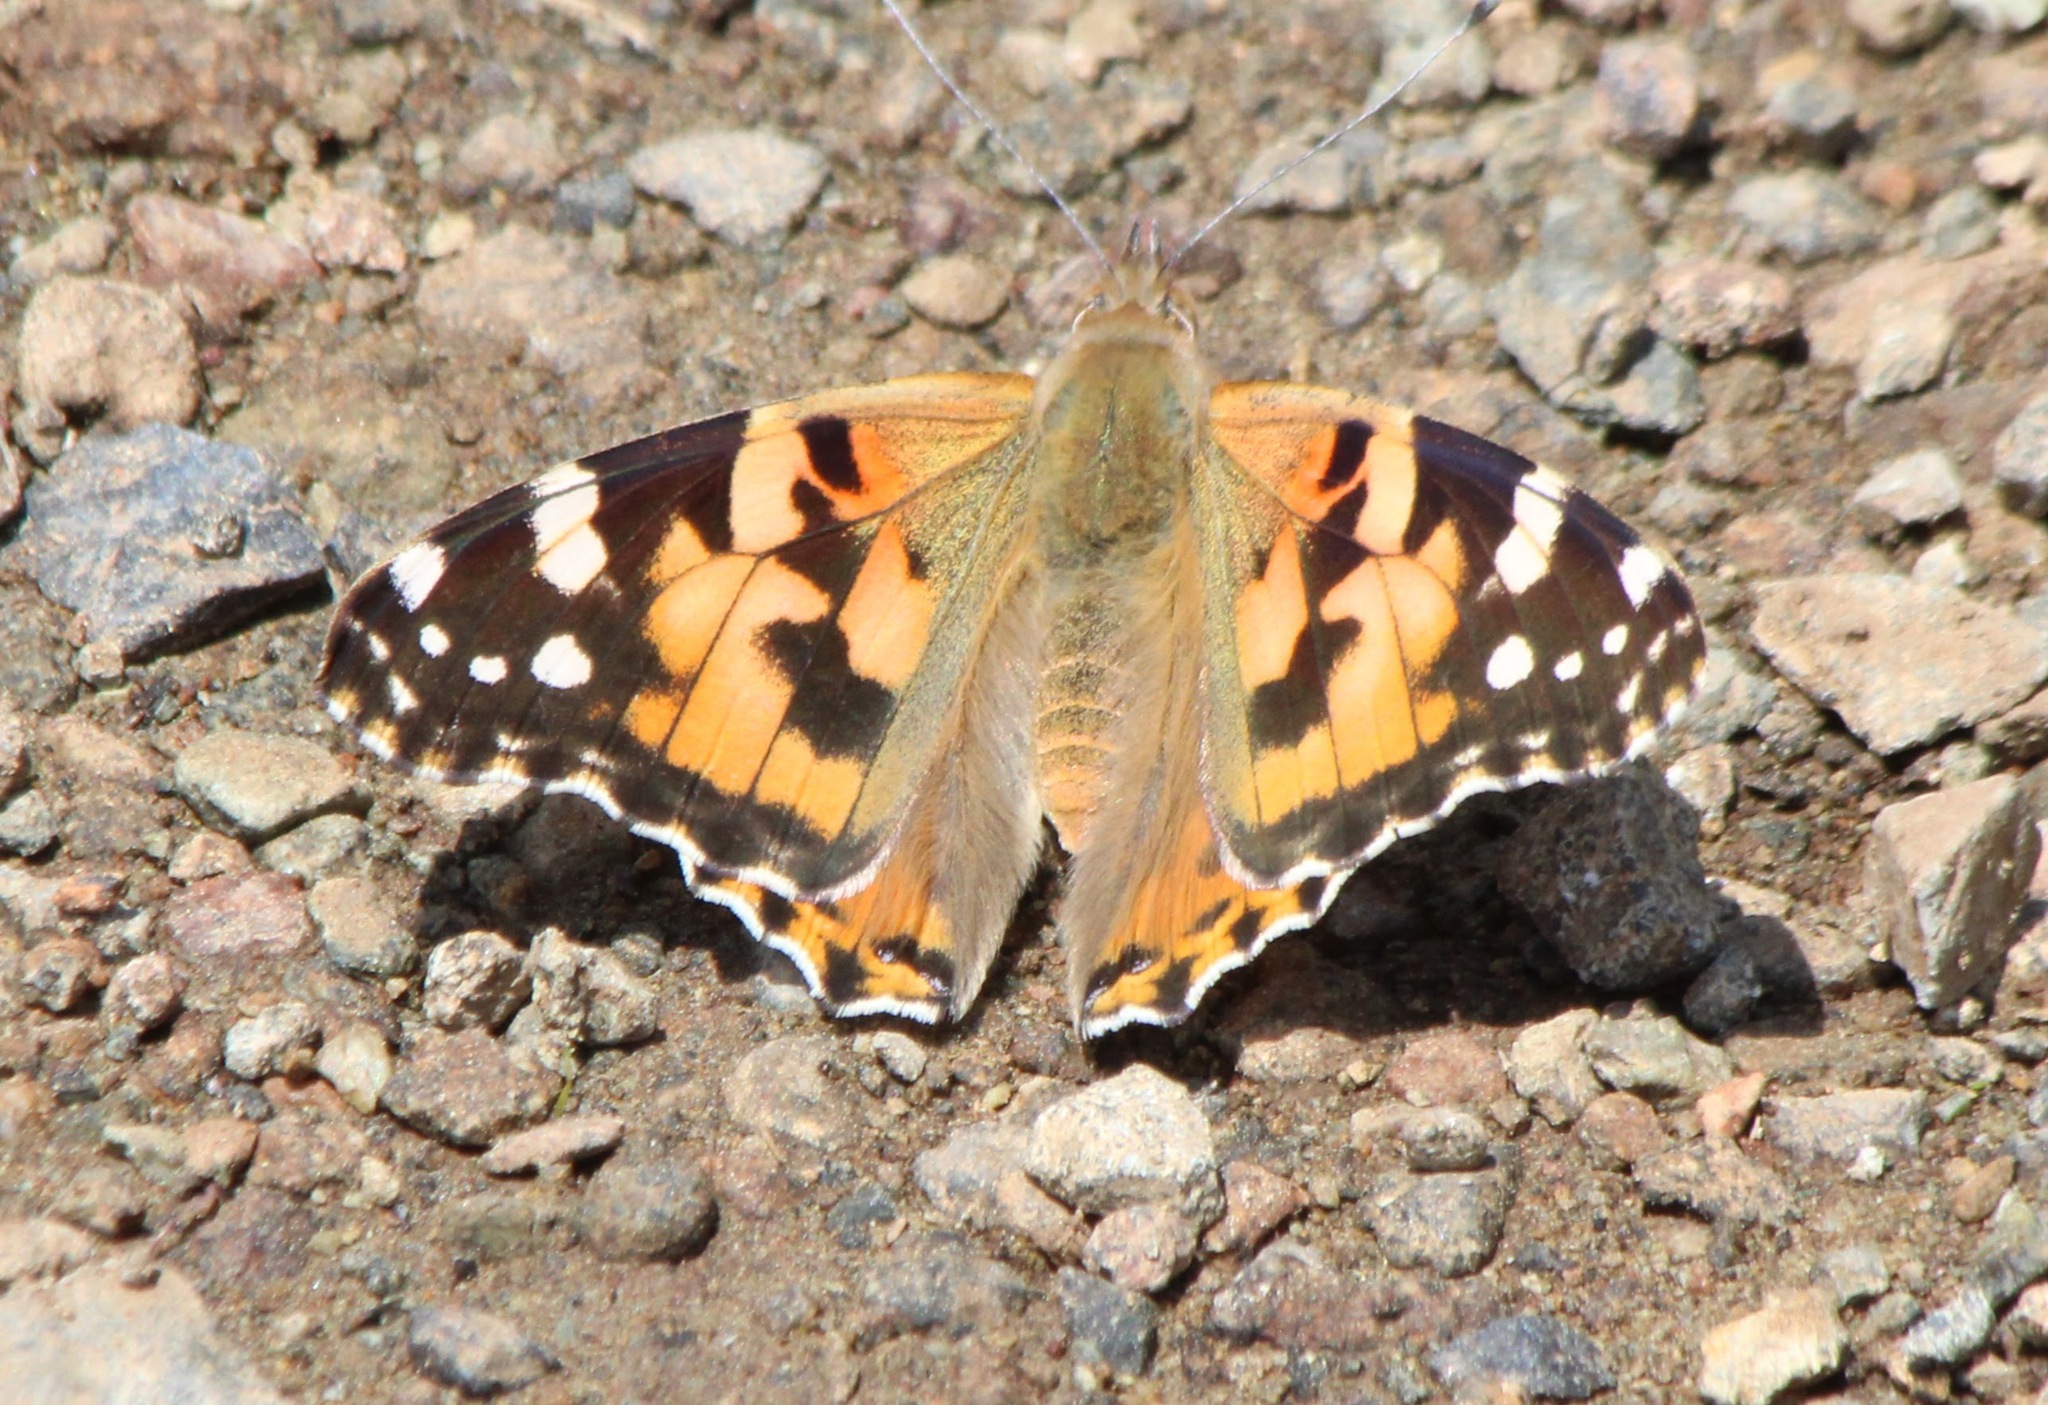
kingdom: Animalia
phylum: Arthropoda
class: Insecta
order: Lepidoptera
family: Nymphalidae
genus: Vanessa
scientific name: Vanessa cardui
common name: Painted lady
